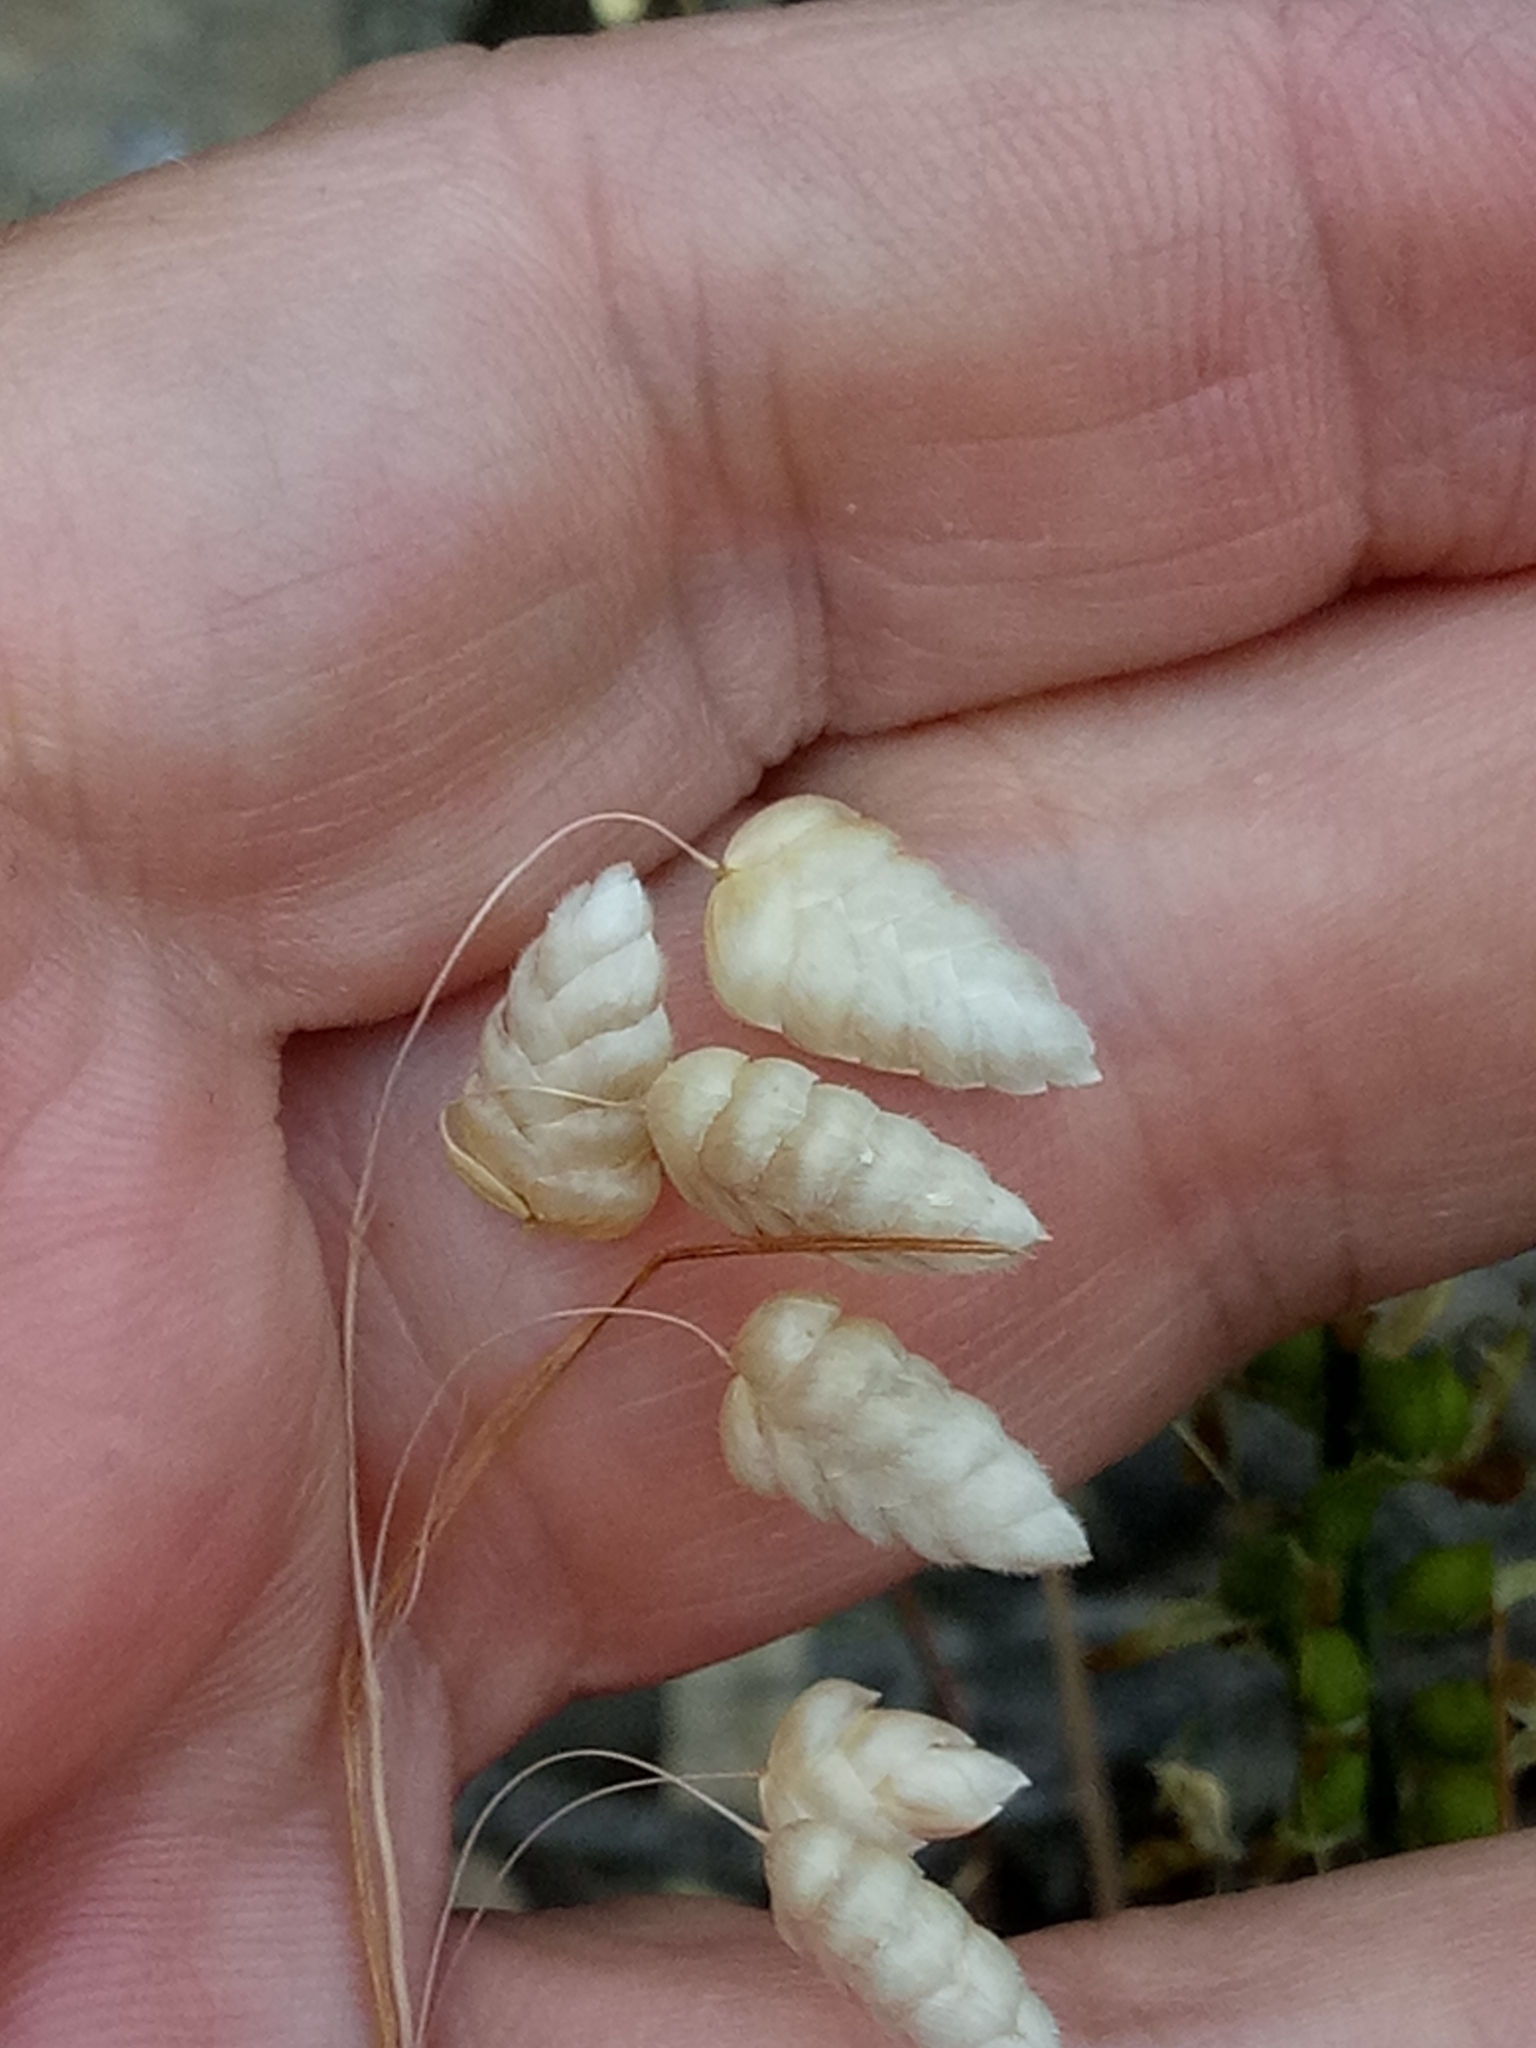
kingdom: Plantae
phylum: Tracheophyta
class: Liliopsida
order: Poales
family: Poaceae
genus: Briza
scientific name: Briza maxima
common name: Big quakinggrass
